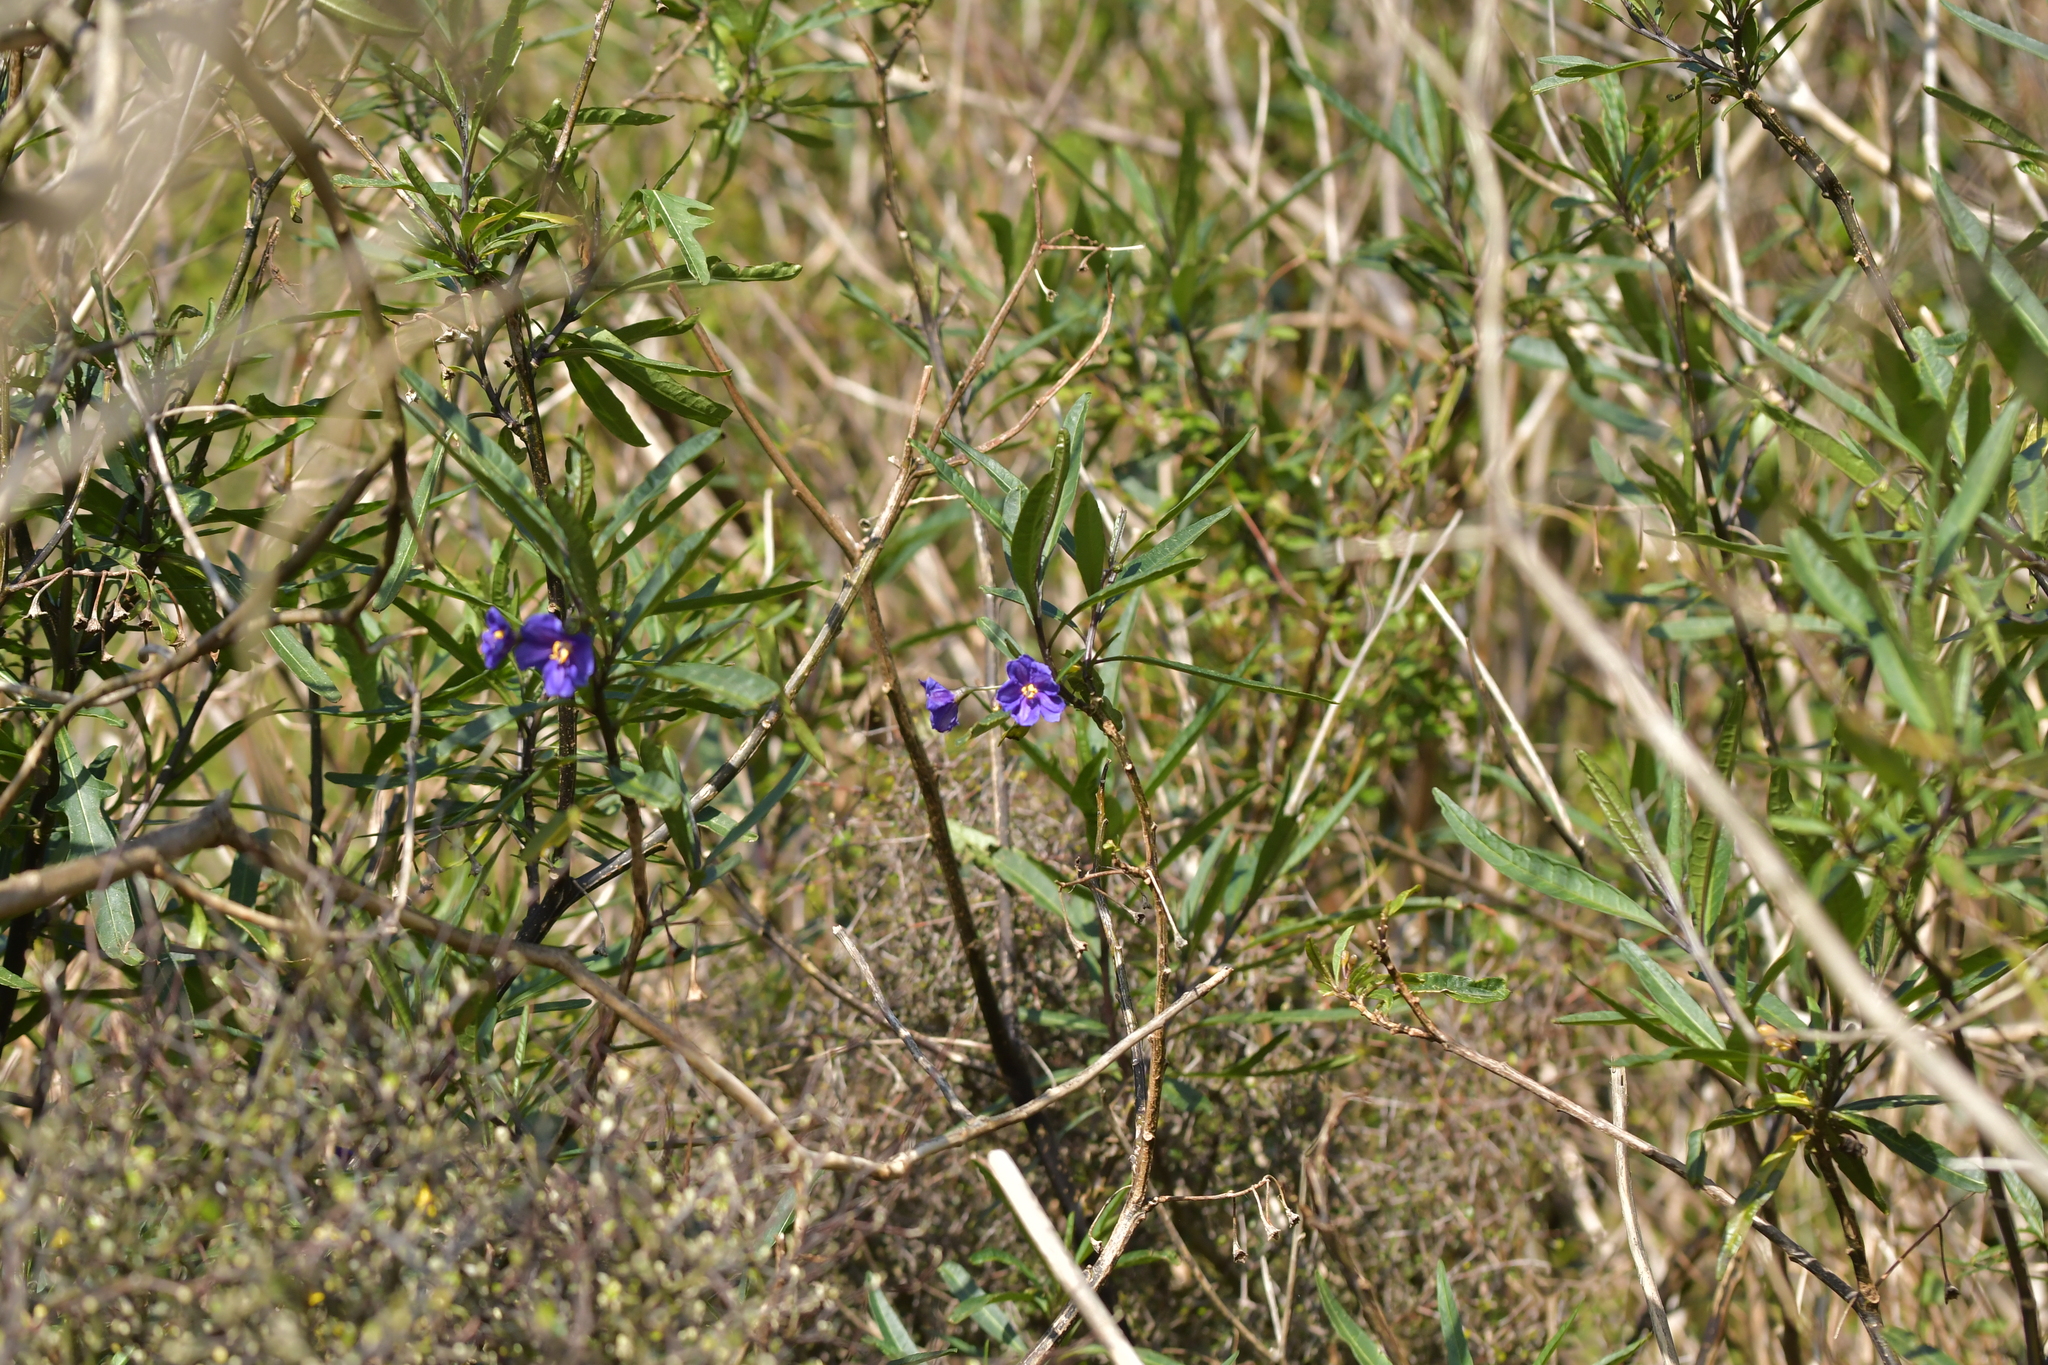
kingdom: Plantae
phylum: Tracheophyta
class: Magnoliopsida
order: Solanales
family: Solanaceae
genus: Solanum
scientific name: Solanum laciniatum
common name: Kangaroo-apple
